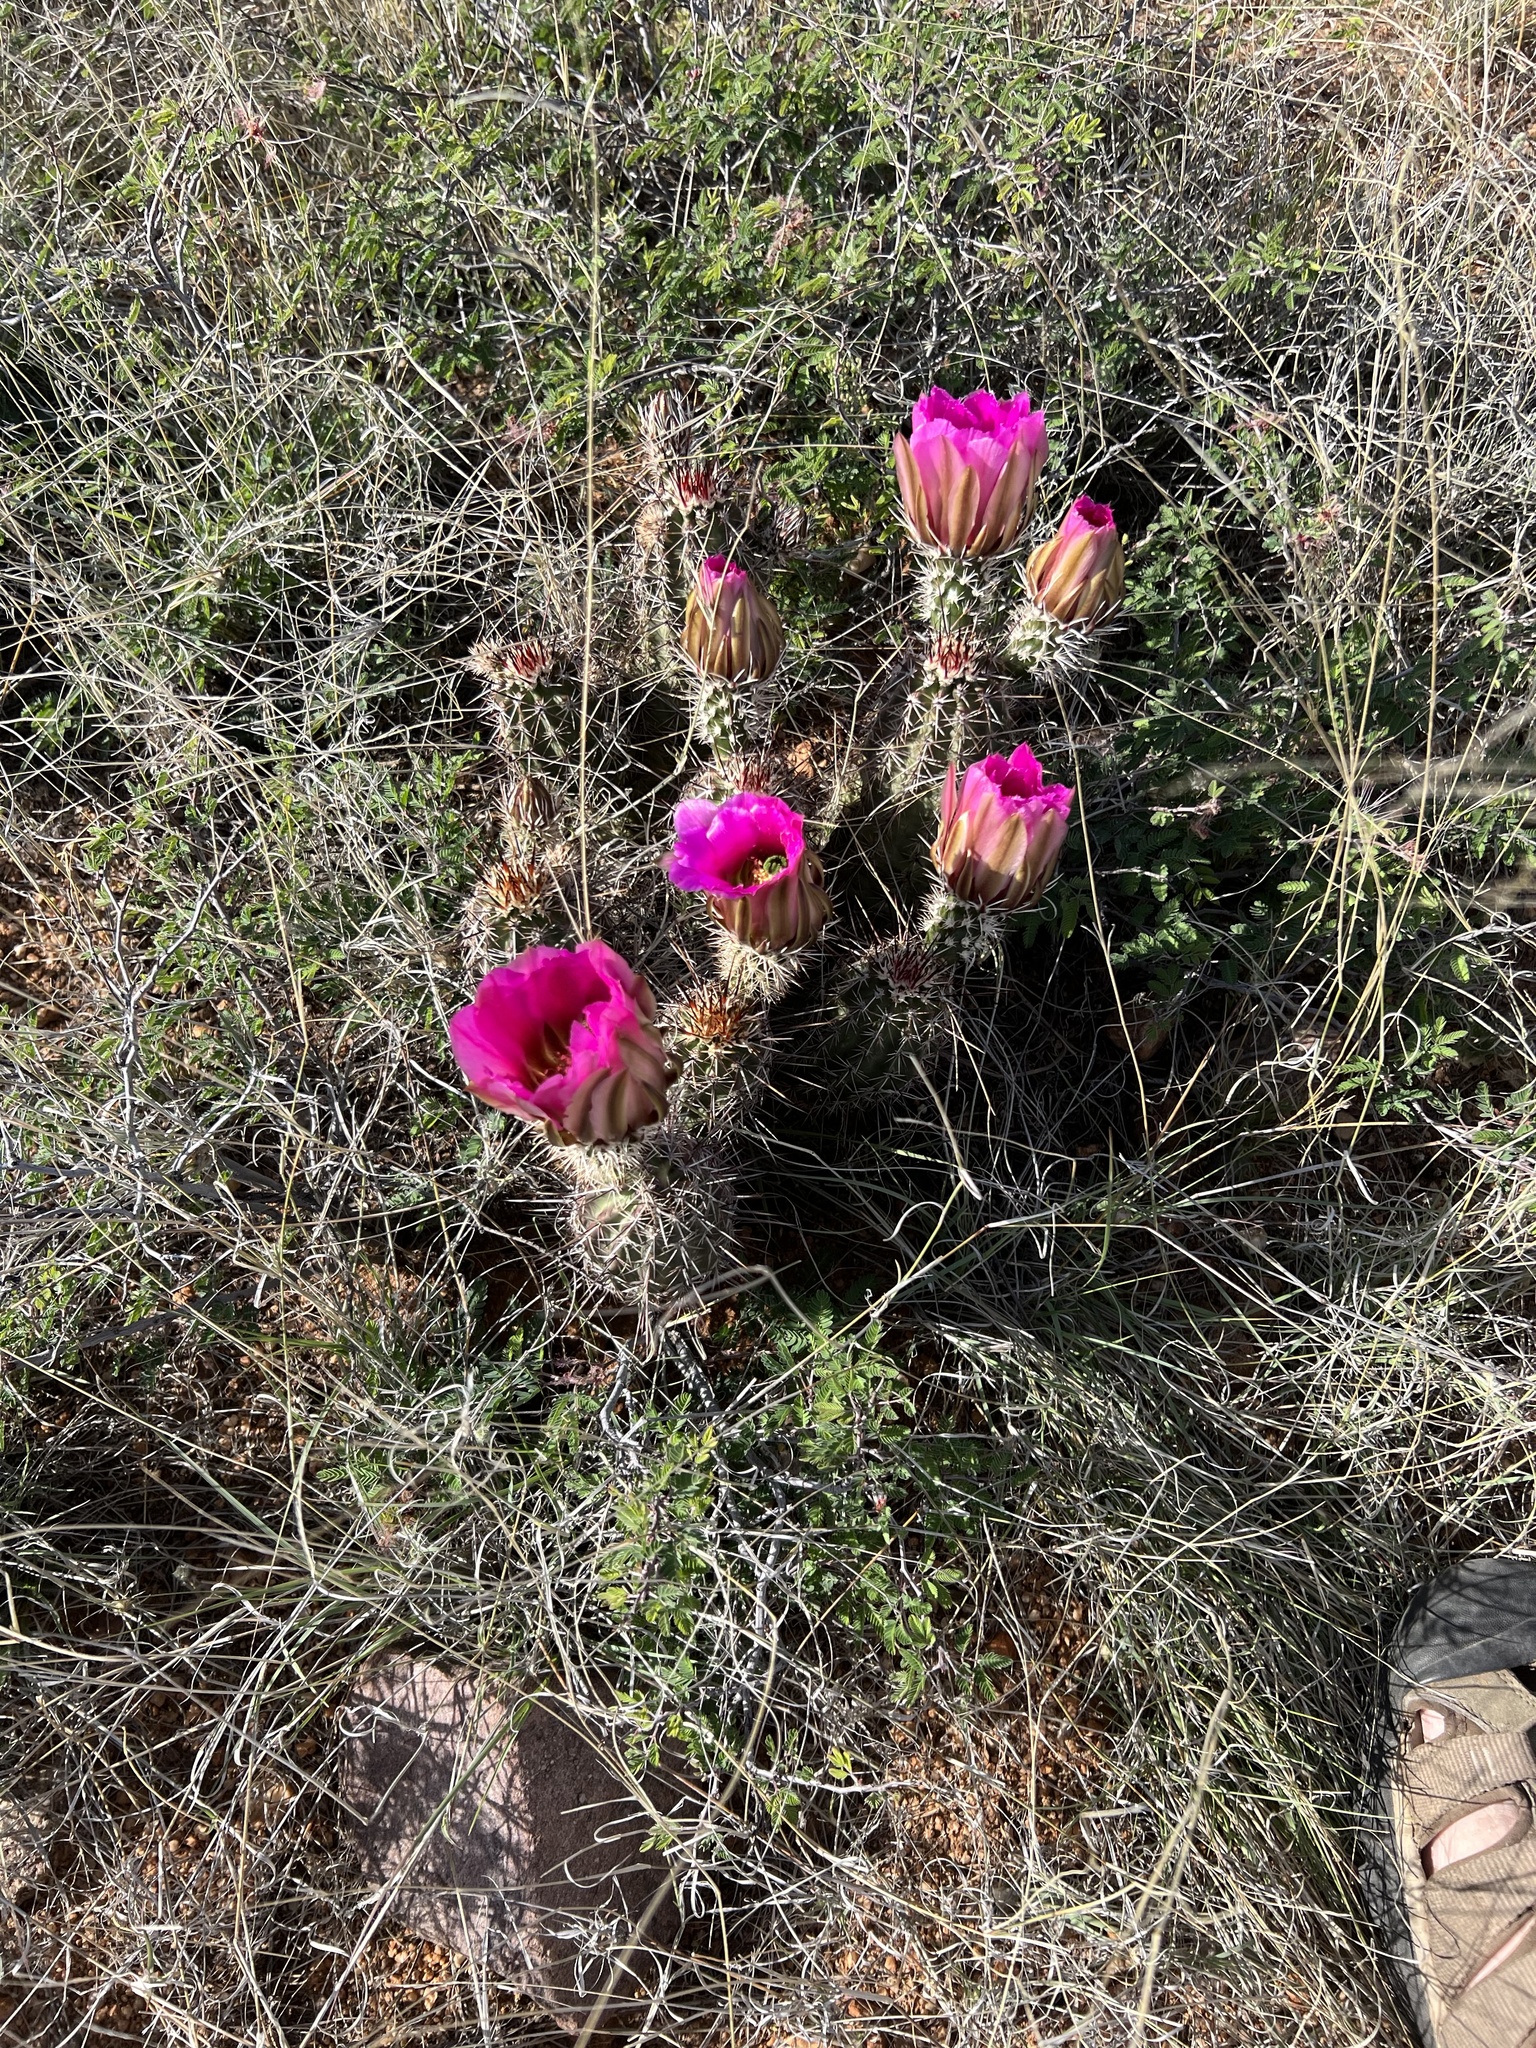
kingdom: Plantae
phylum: Tracheophyta
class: Magnoliopsida
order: Caryophyllales
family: Cactaceae
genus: Echinocereus
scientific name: Echinocereus fasciculatus
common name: Bundle hedgehog
